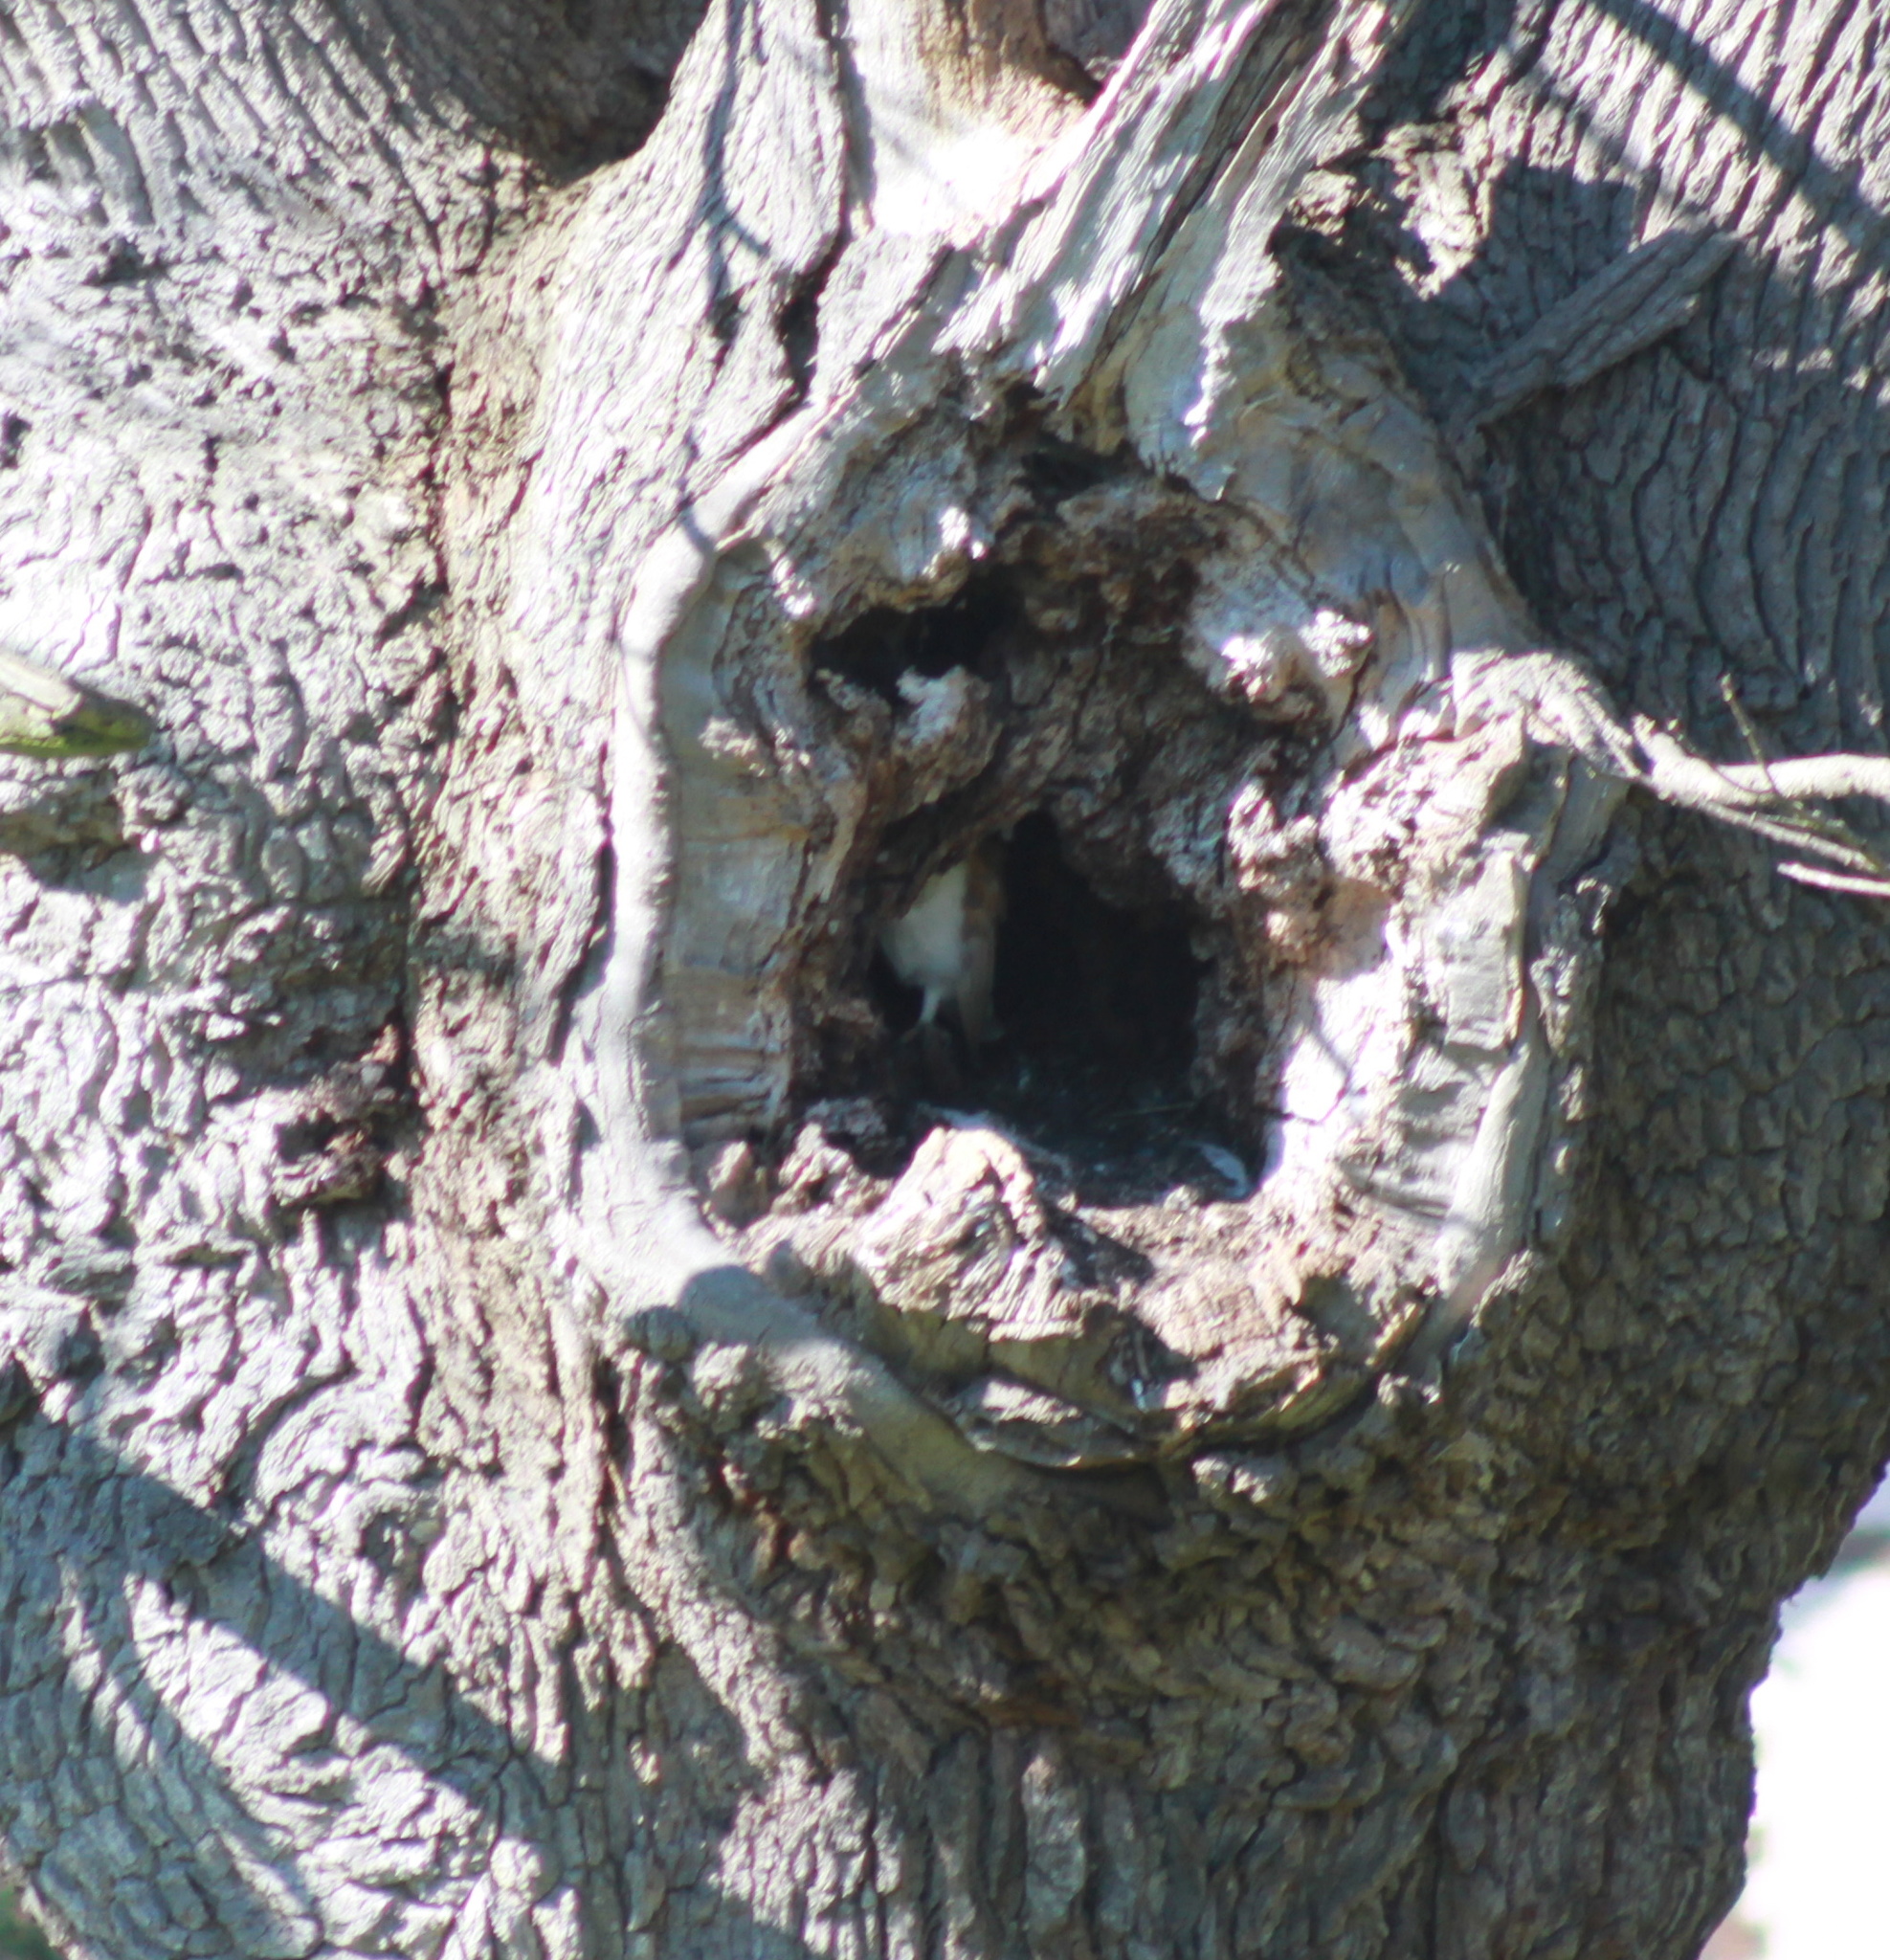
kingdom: Animalia
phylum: Chordata
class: Aves
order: Strigiformes
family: Tytonidae
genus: Tyto
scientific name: Tyto alba
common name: Barn owl
